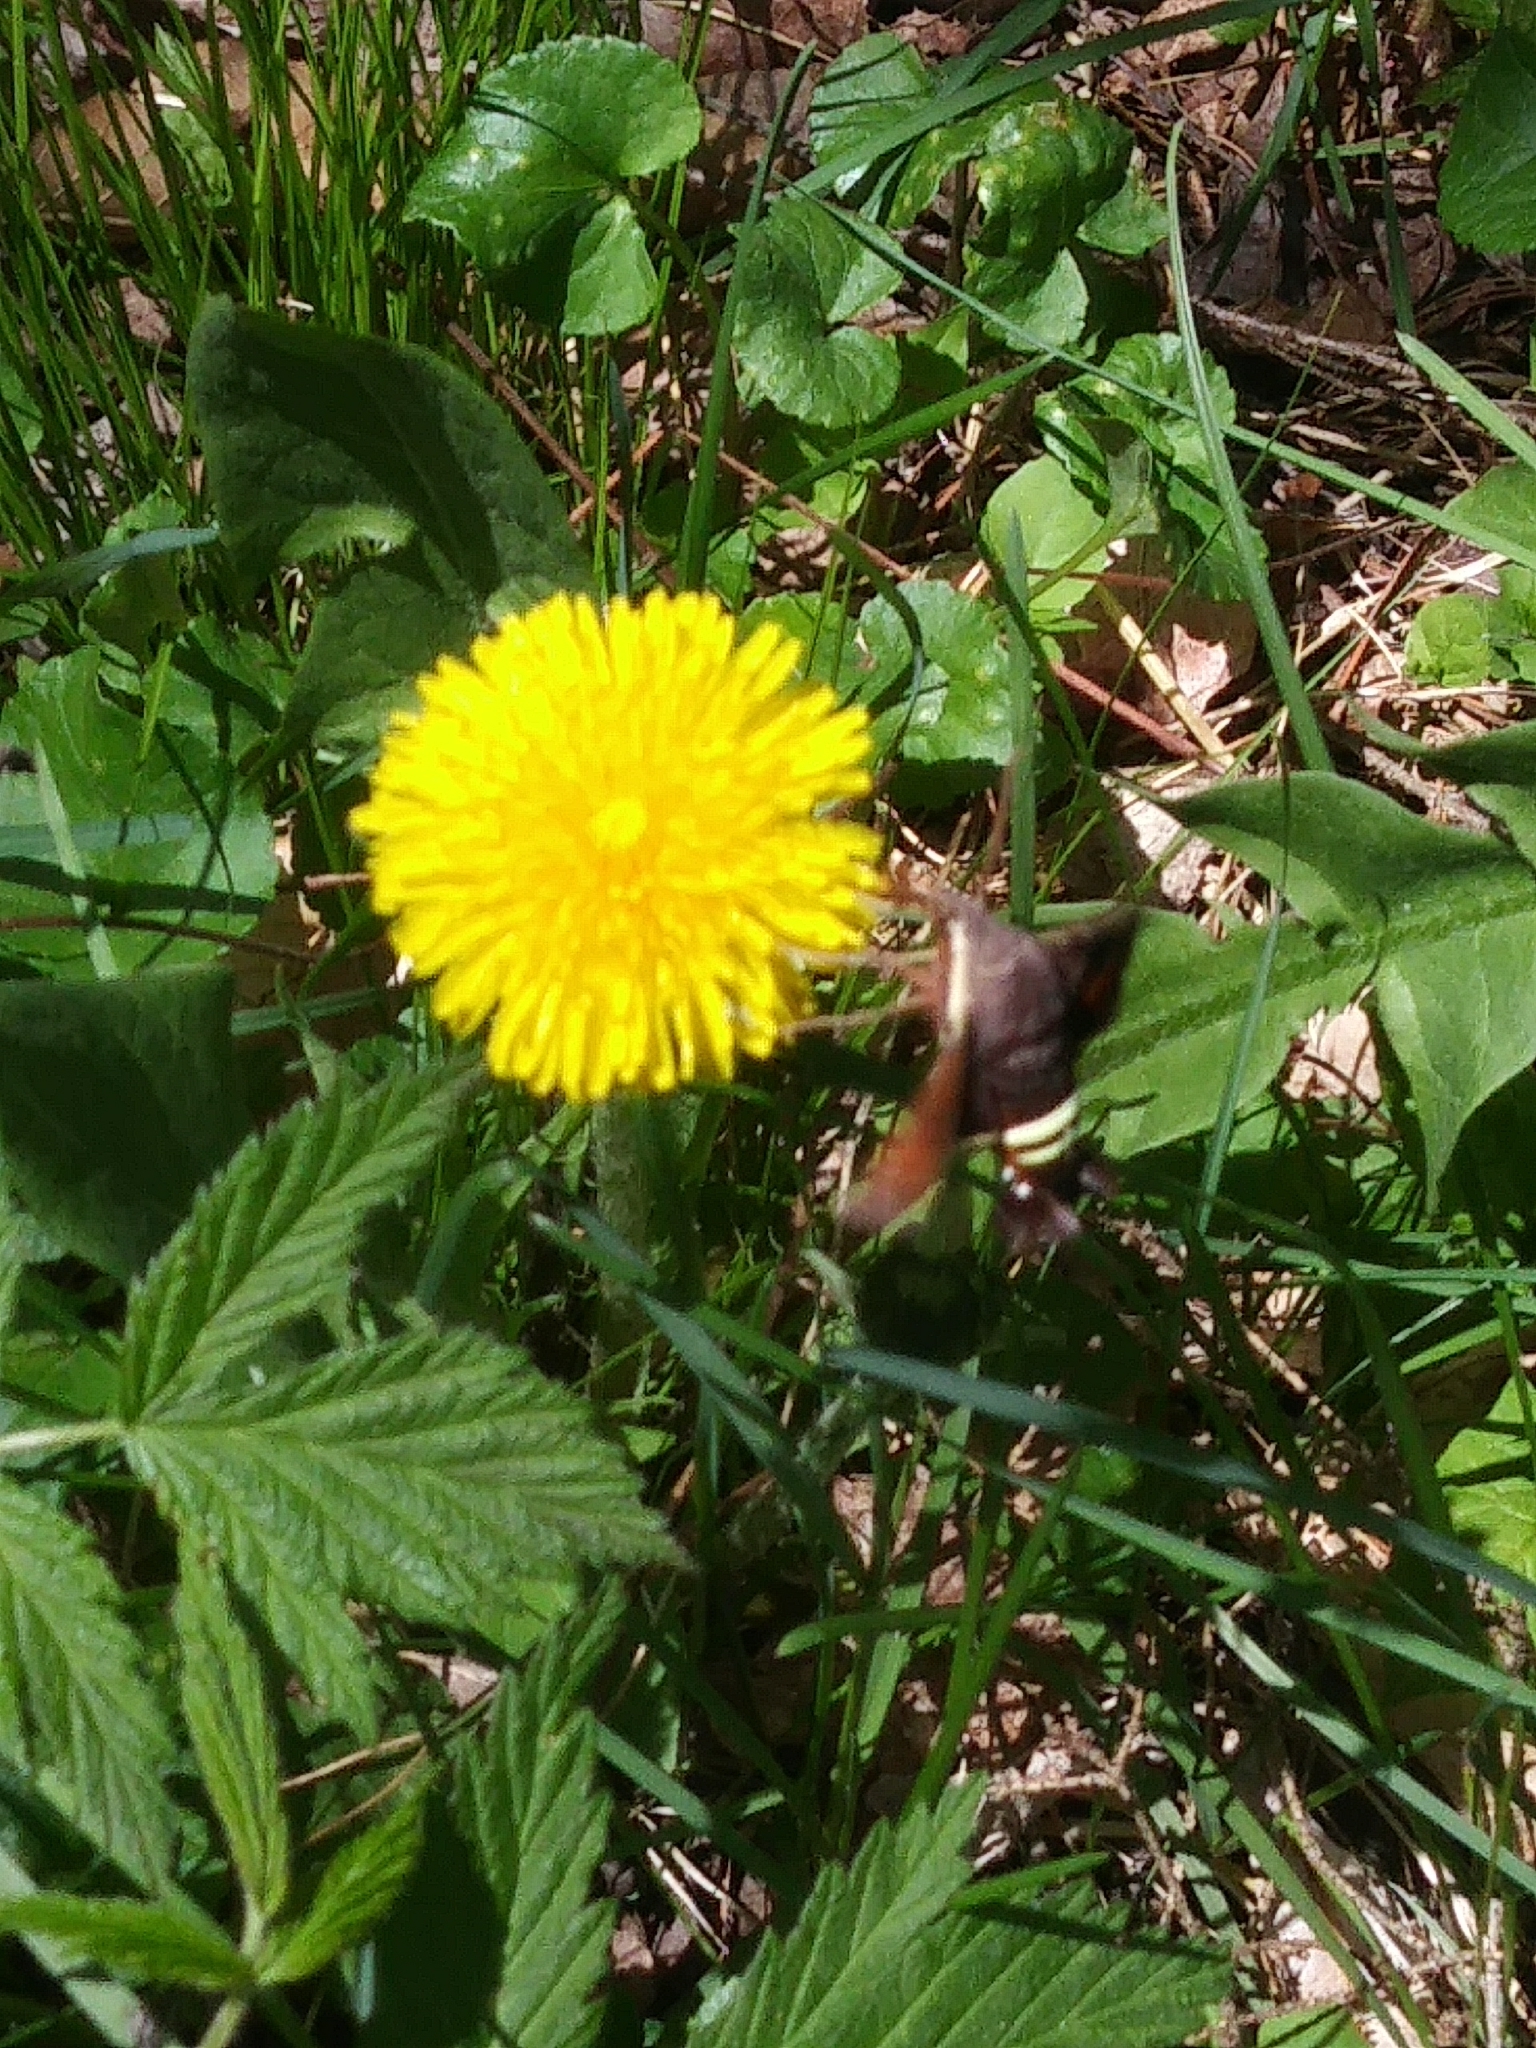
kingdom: Animalia
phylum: Arthropoda
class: Insecta
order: Lepidoptera
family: Sphingidae
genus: Amphion
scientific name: Amphion floridensis
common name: Nessus sphinx
